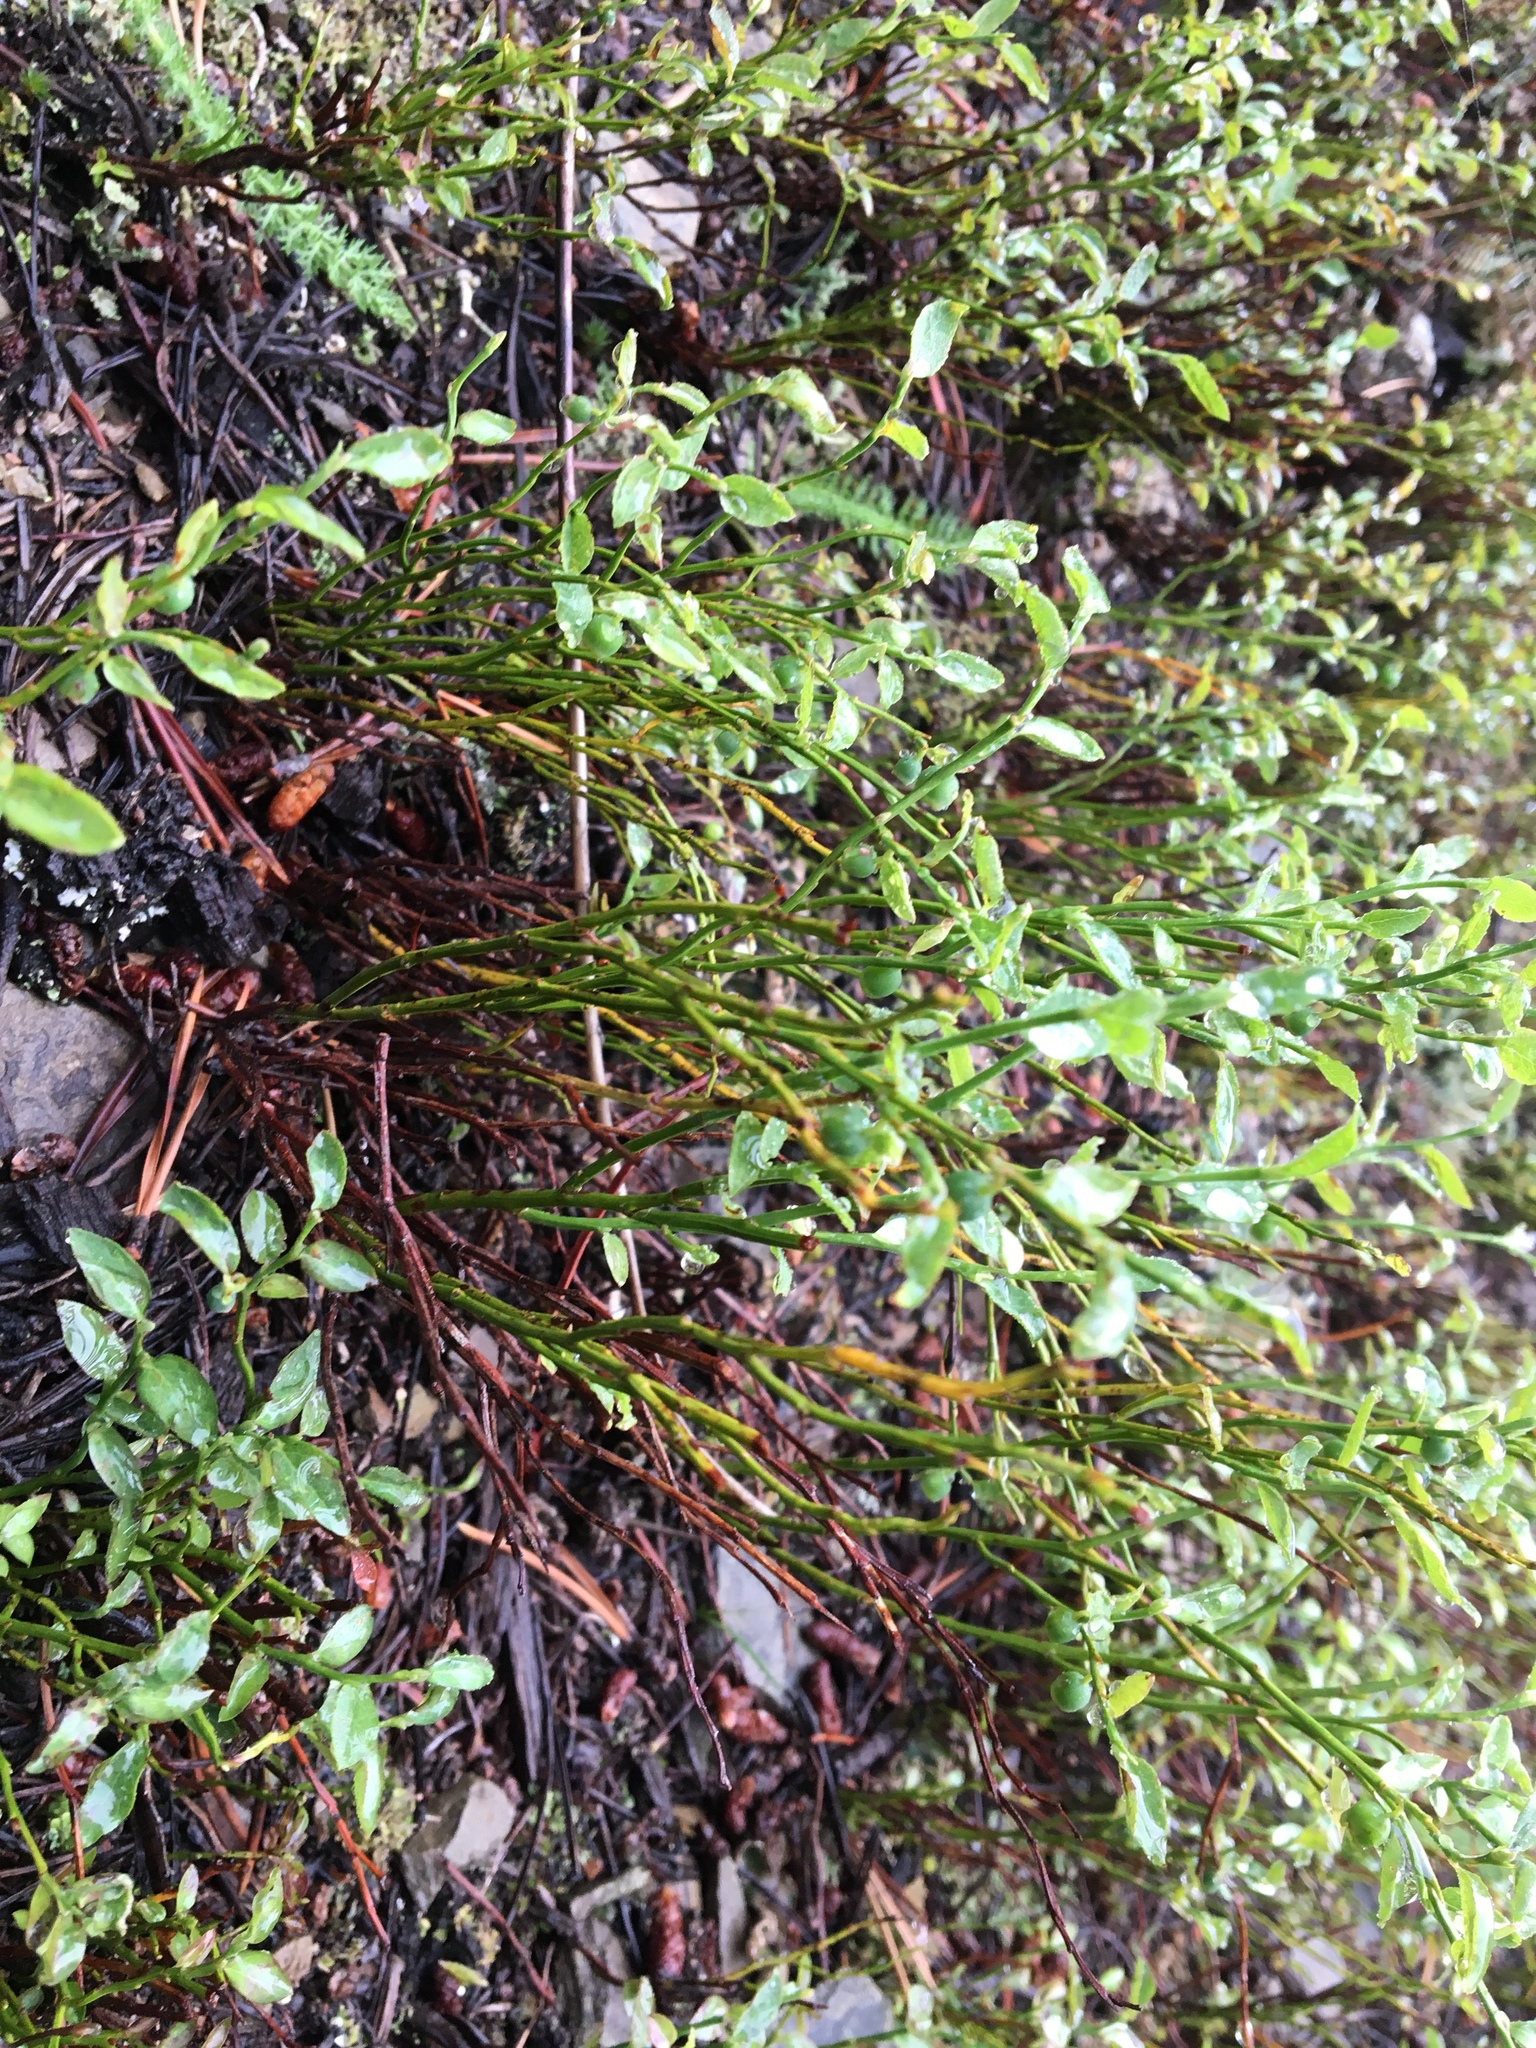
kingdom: Plantae
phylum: Tracheophyta
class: Magnoliopsida
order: Ericales
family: Ericaceae
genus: Vaccinium
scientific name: Vaccinium scoparium
